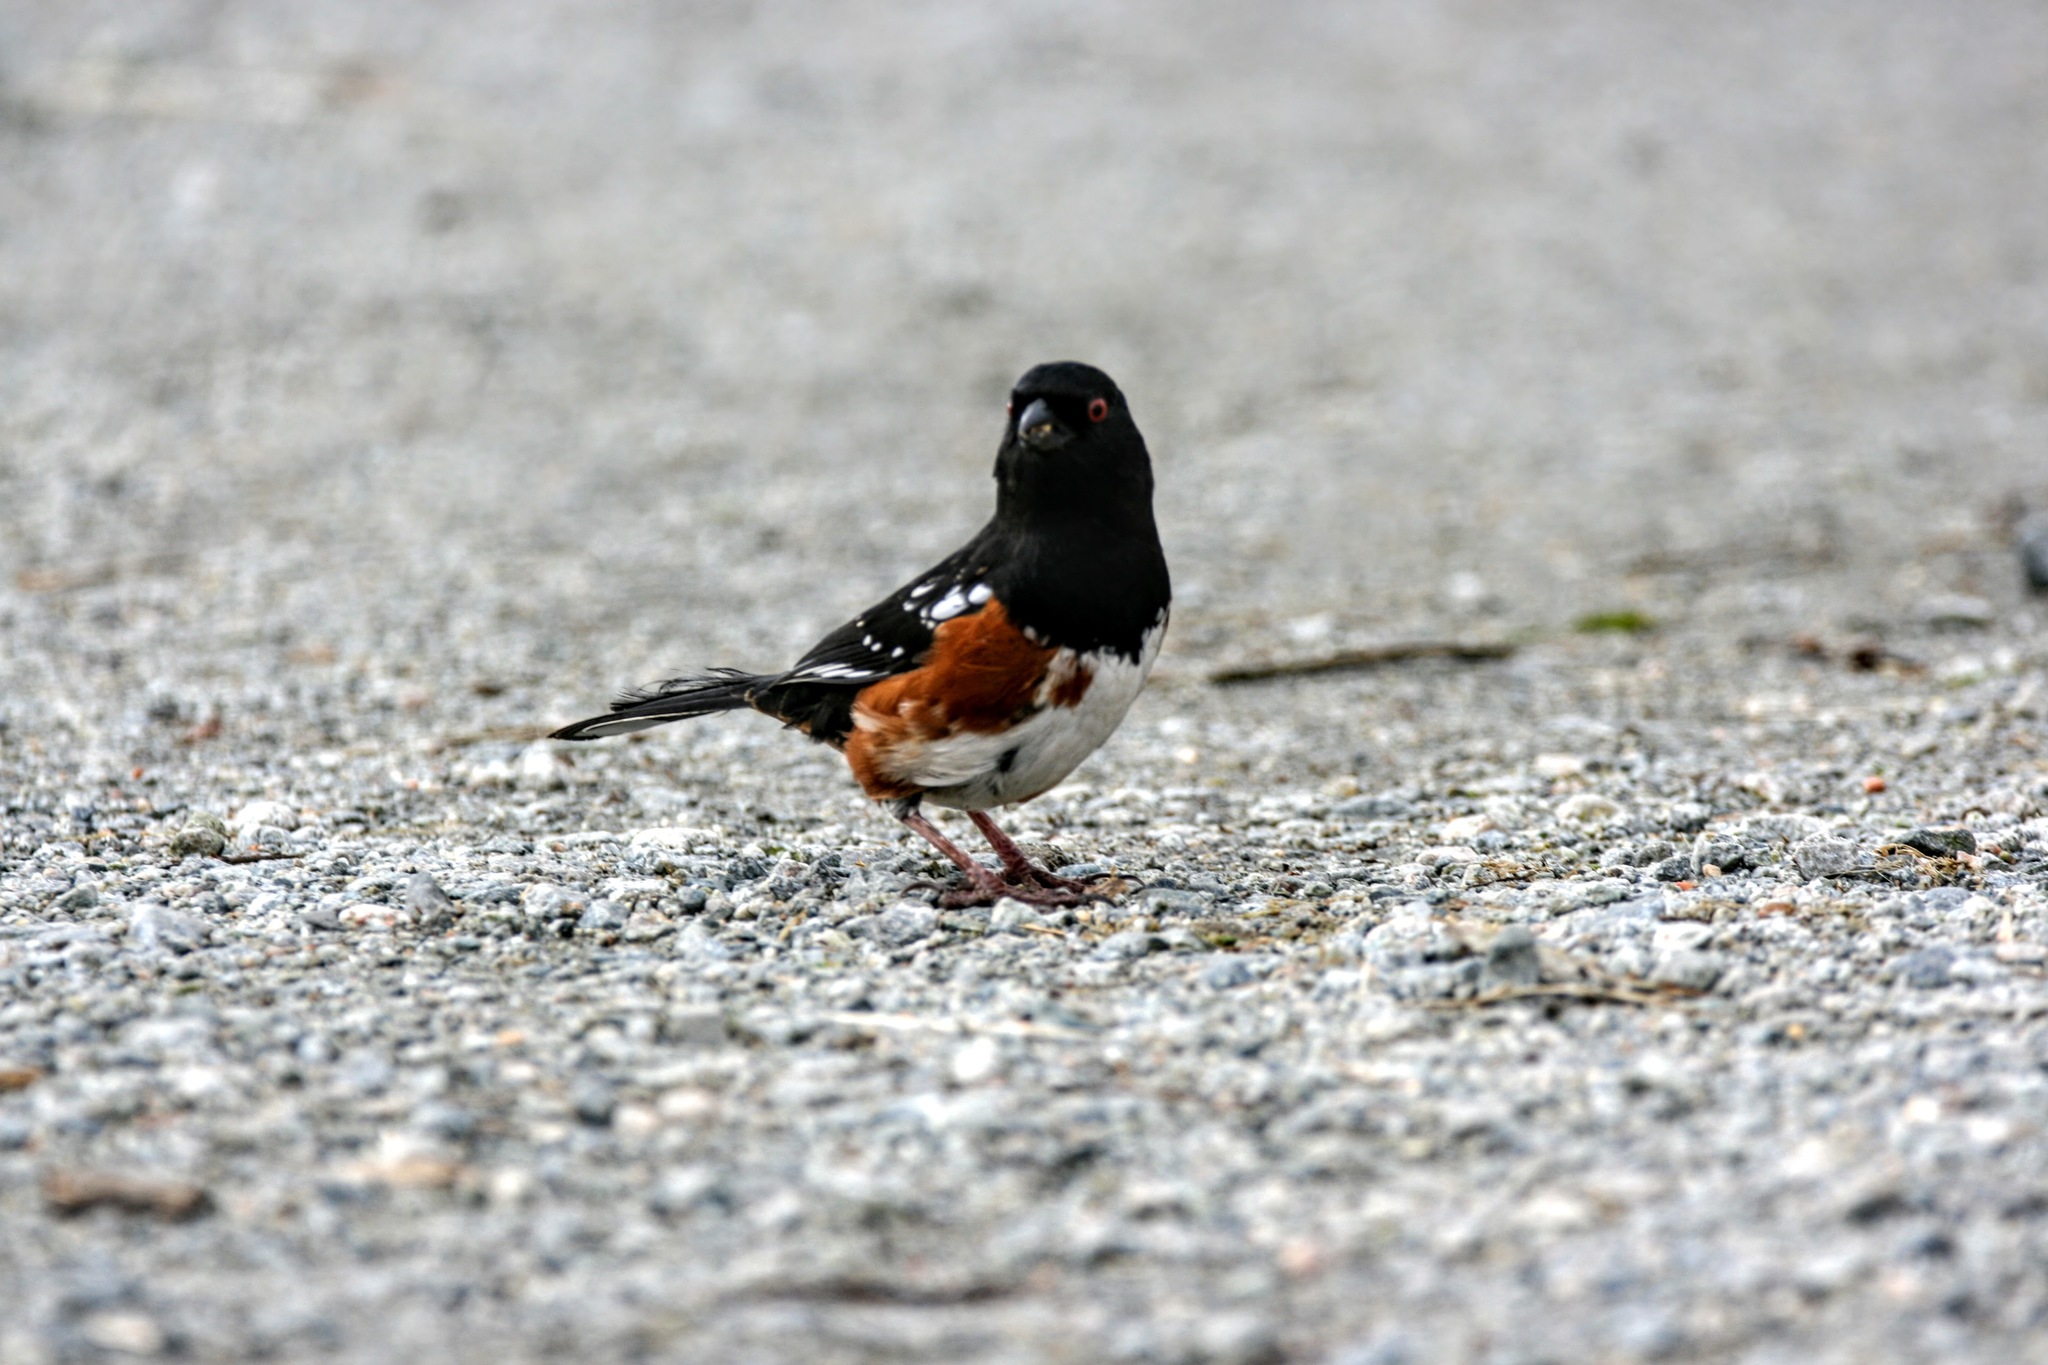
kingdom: Animalia
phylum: Chordata
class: Aves
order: Passeriformes
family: Passerellidae
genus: Pipilo
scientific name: Pipilo maculatus
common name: Spotted towhee
